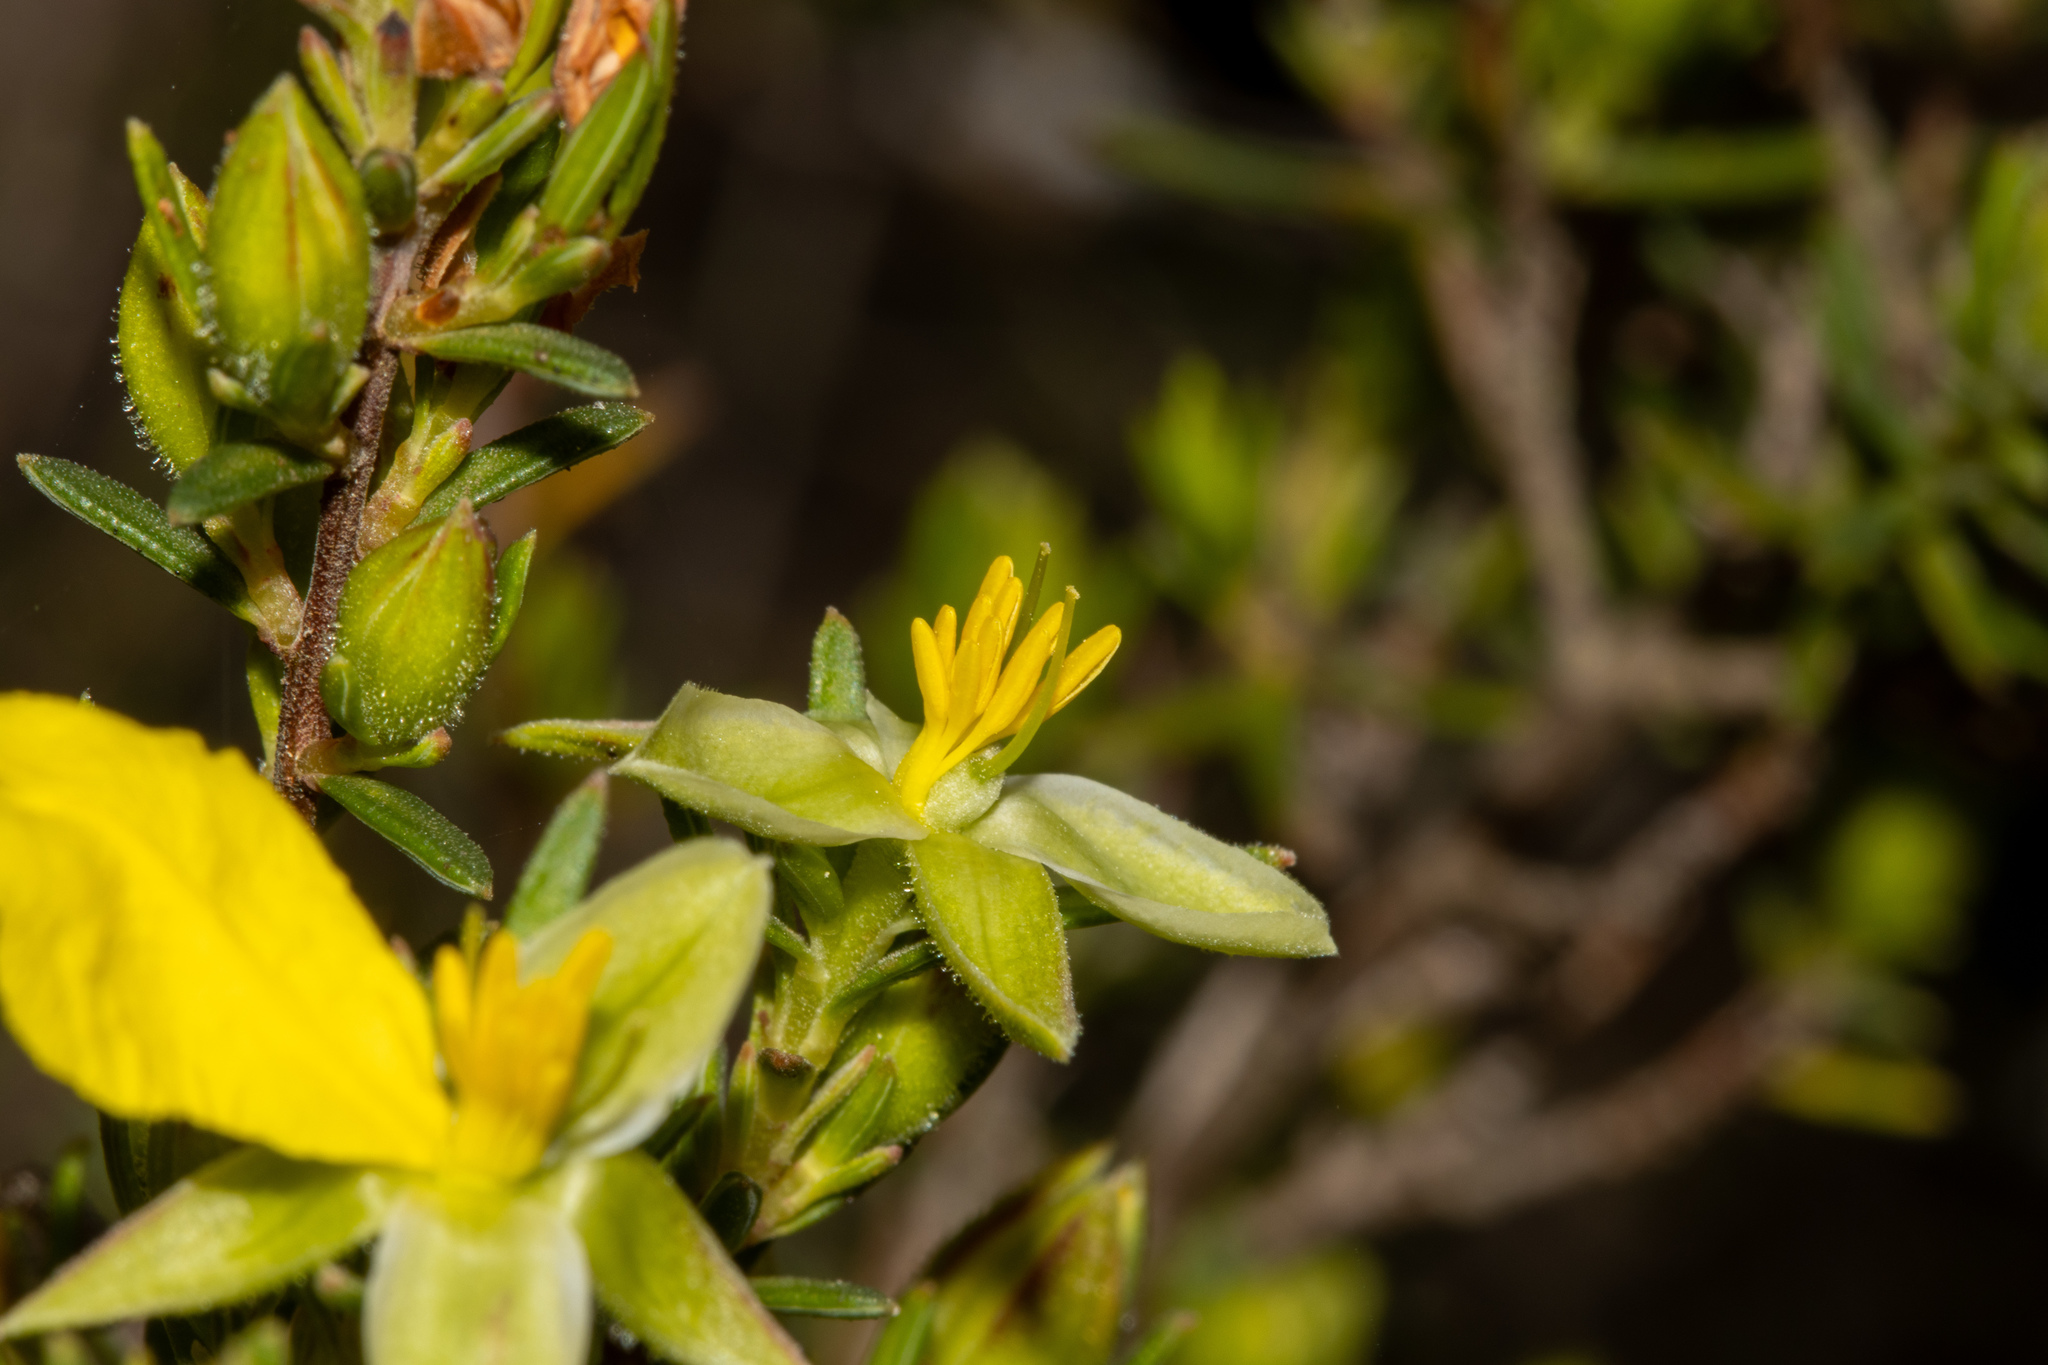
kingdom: Plantae
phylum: Tracheophyta
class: Magnoliopsida
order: Dilleniales
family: Dilleniaceae
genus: Hibbertia
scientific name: Hibbertia devitata
